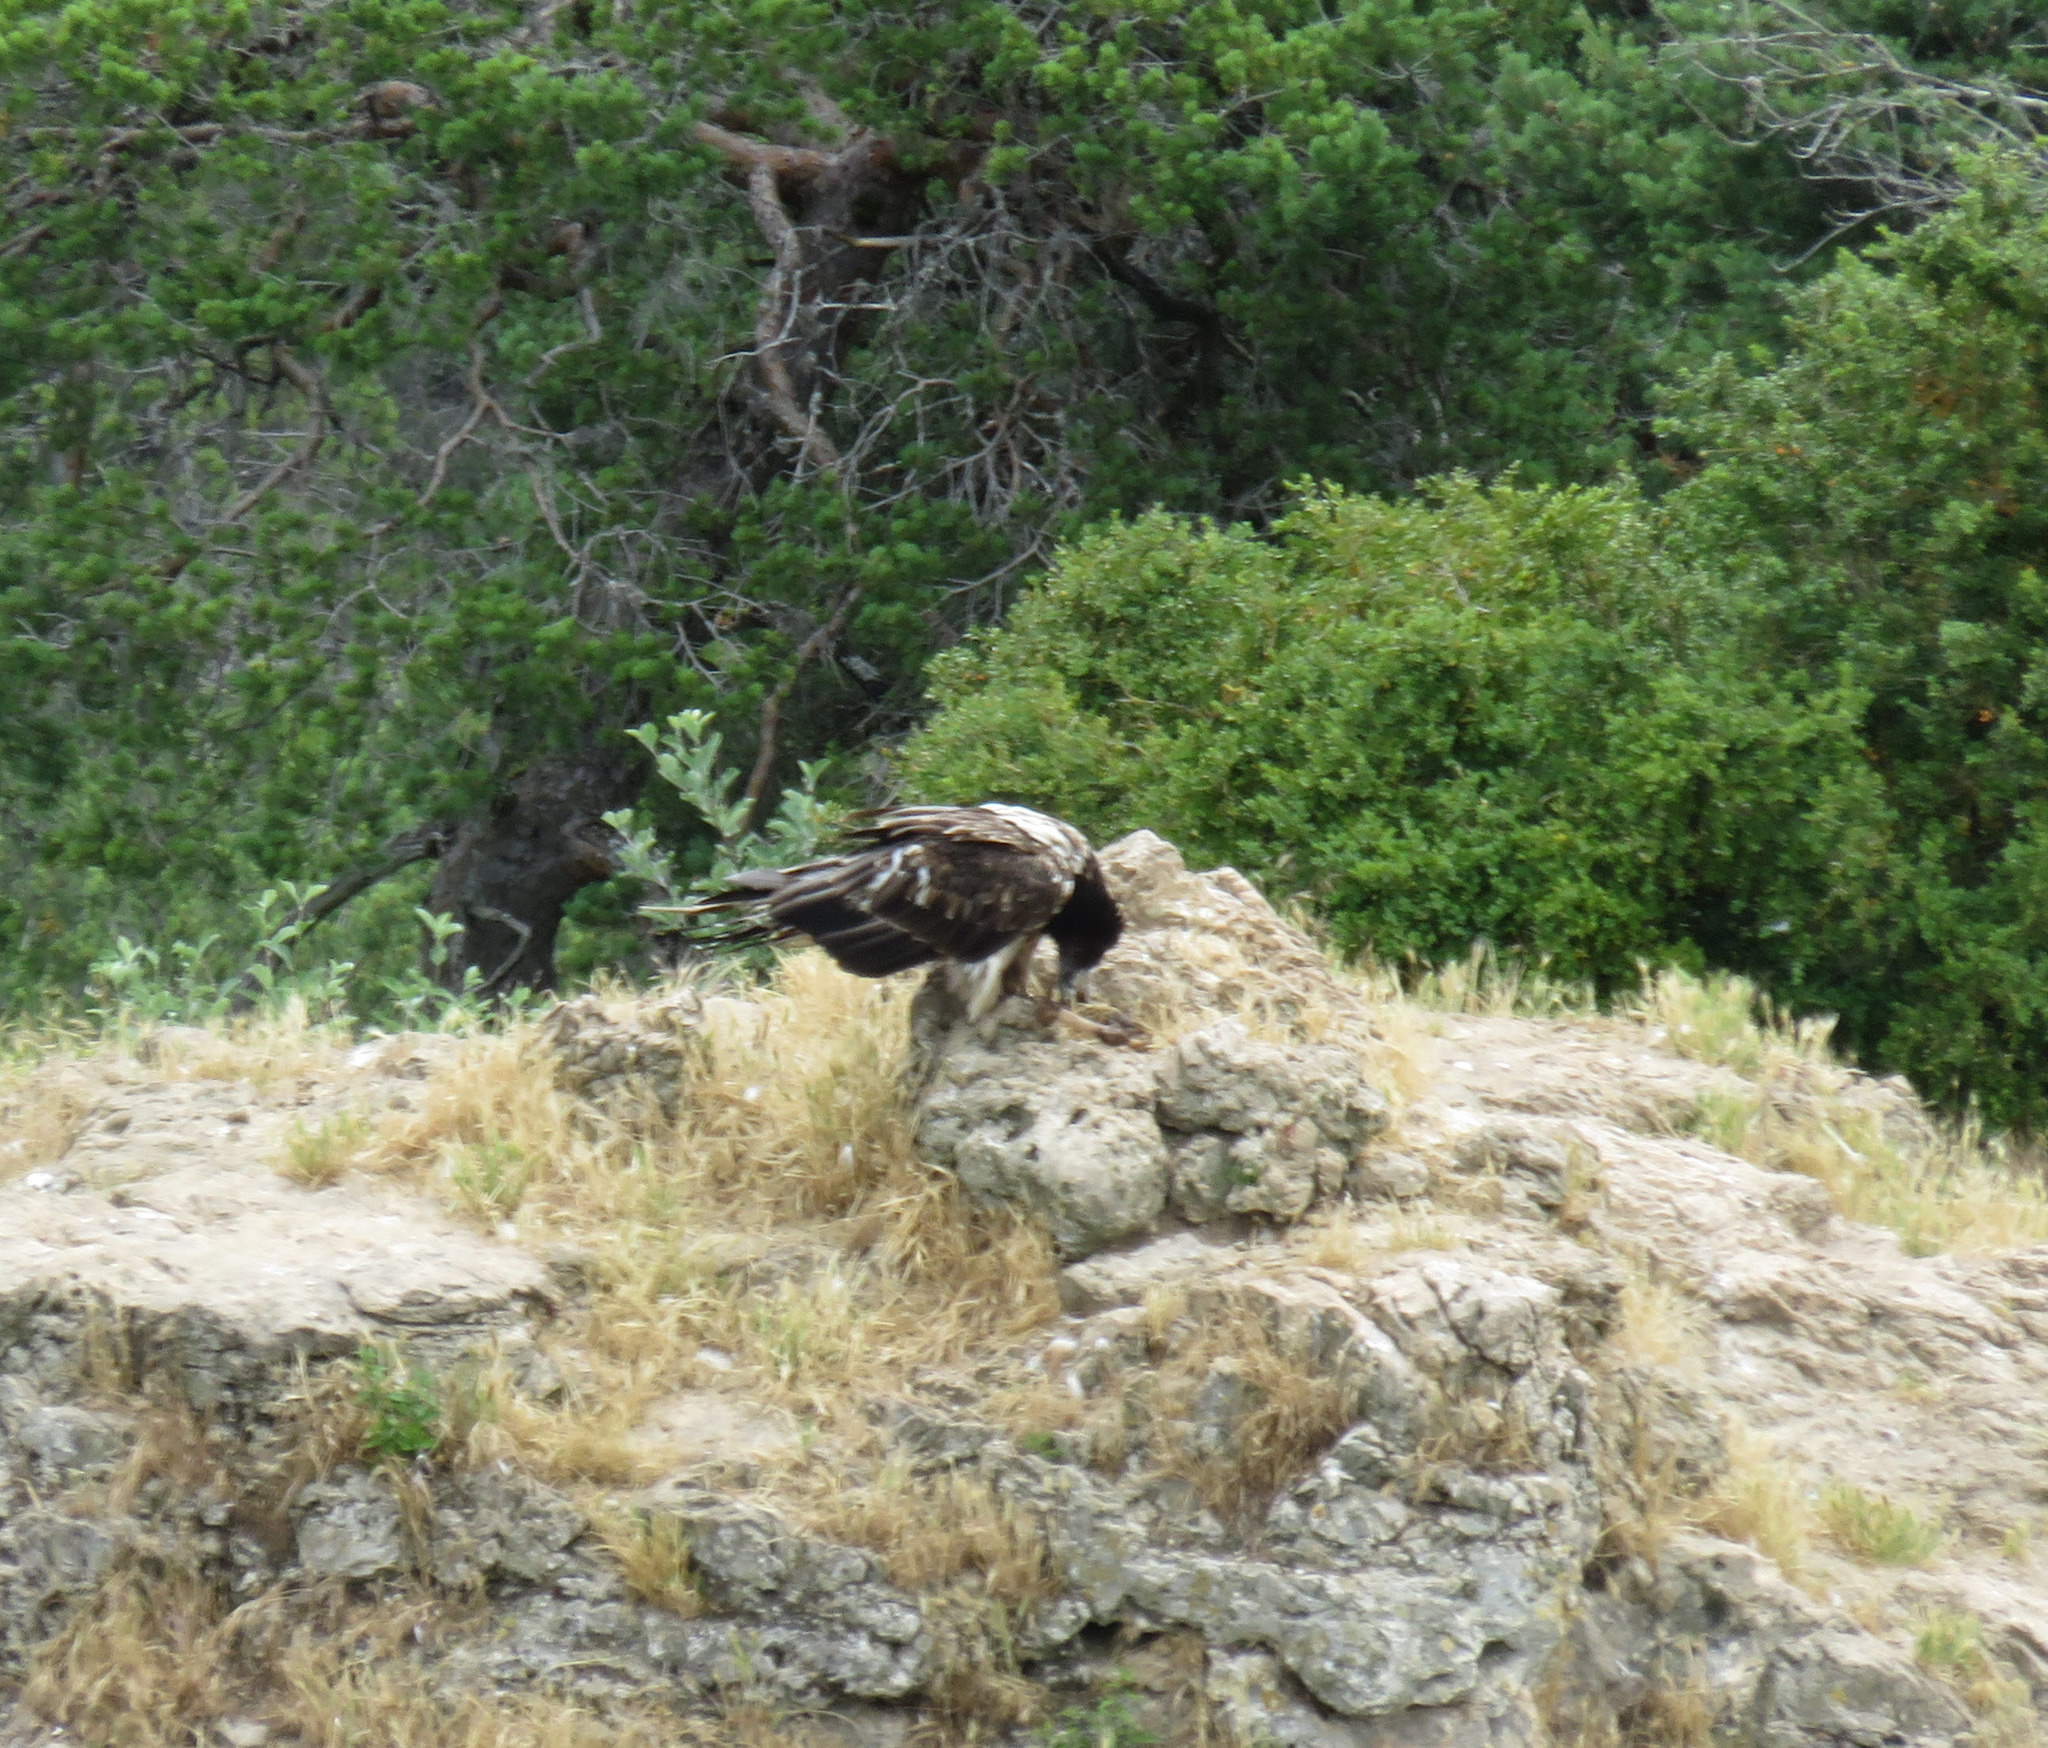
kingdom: Animalia
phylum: Chordata
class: Aves
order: Accipitriformes
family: Accipitridae
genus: Gypaetus
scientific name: Gypaetus barbatus
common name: Bearded vulture
